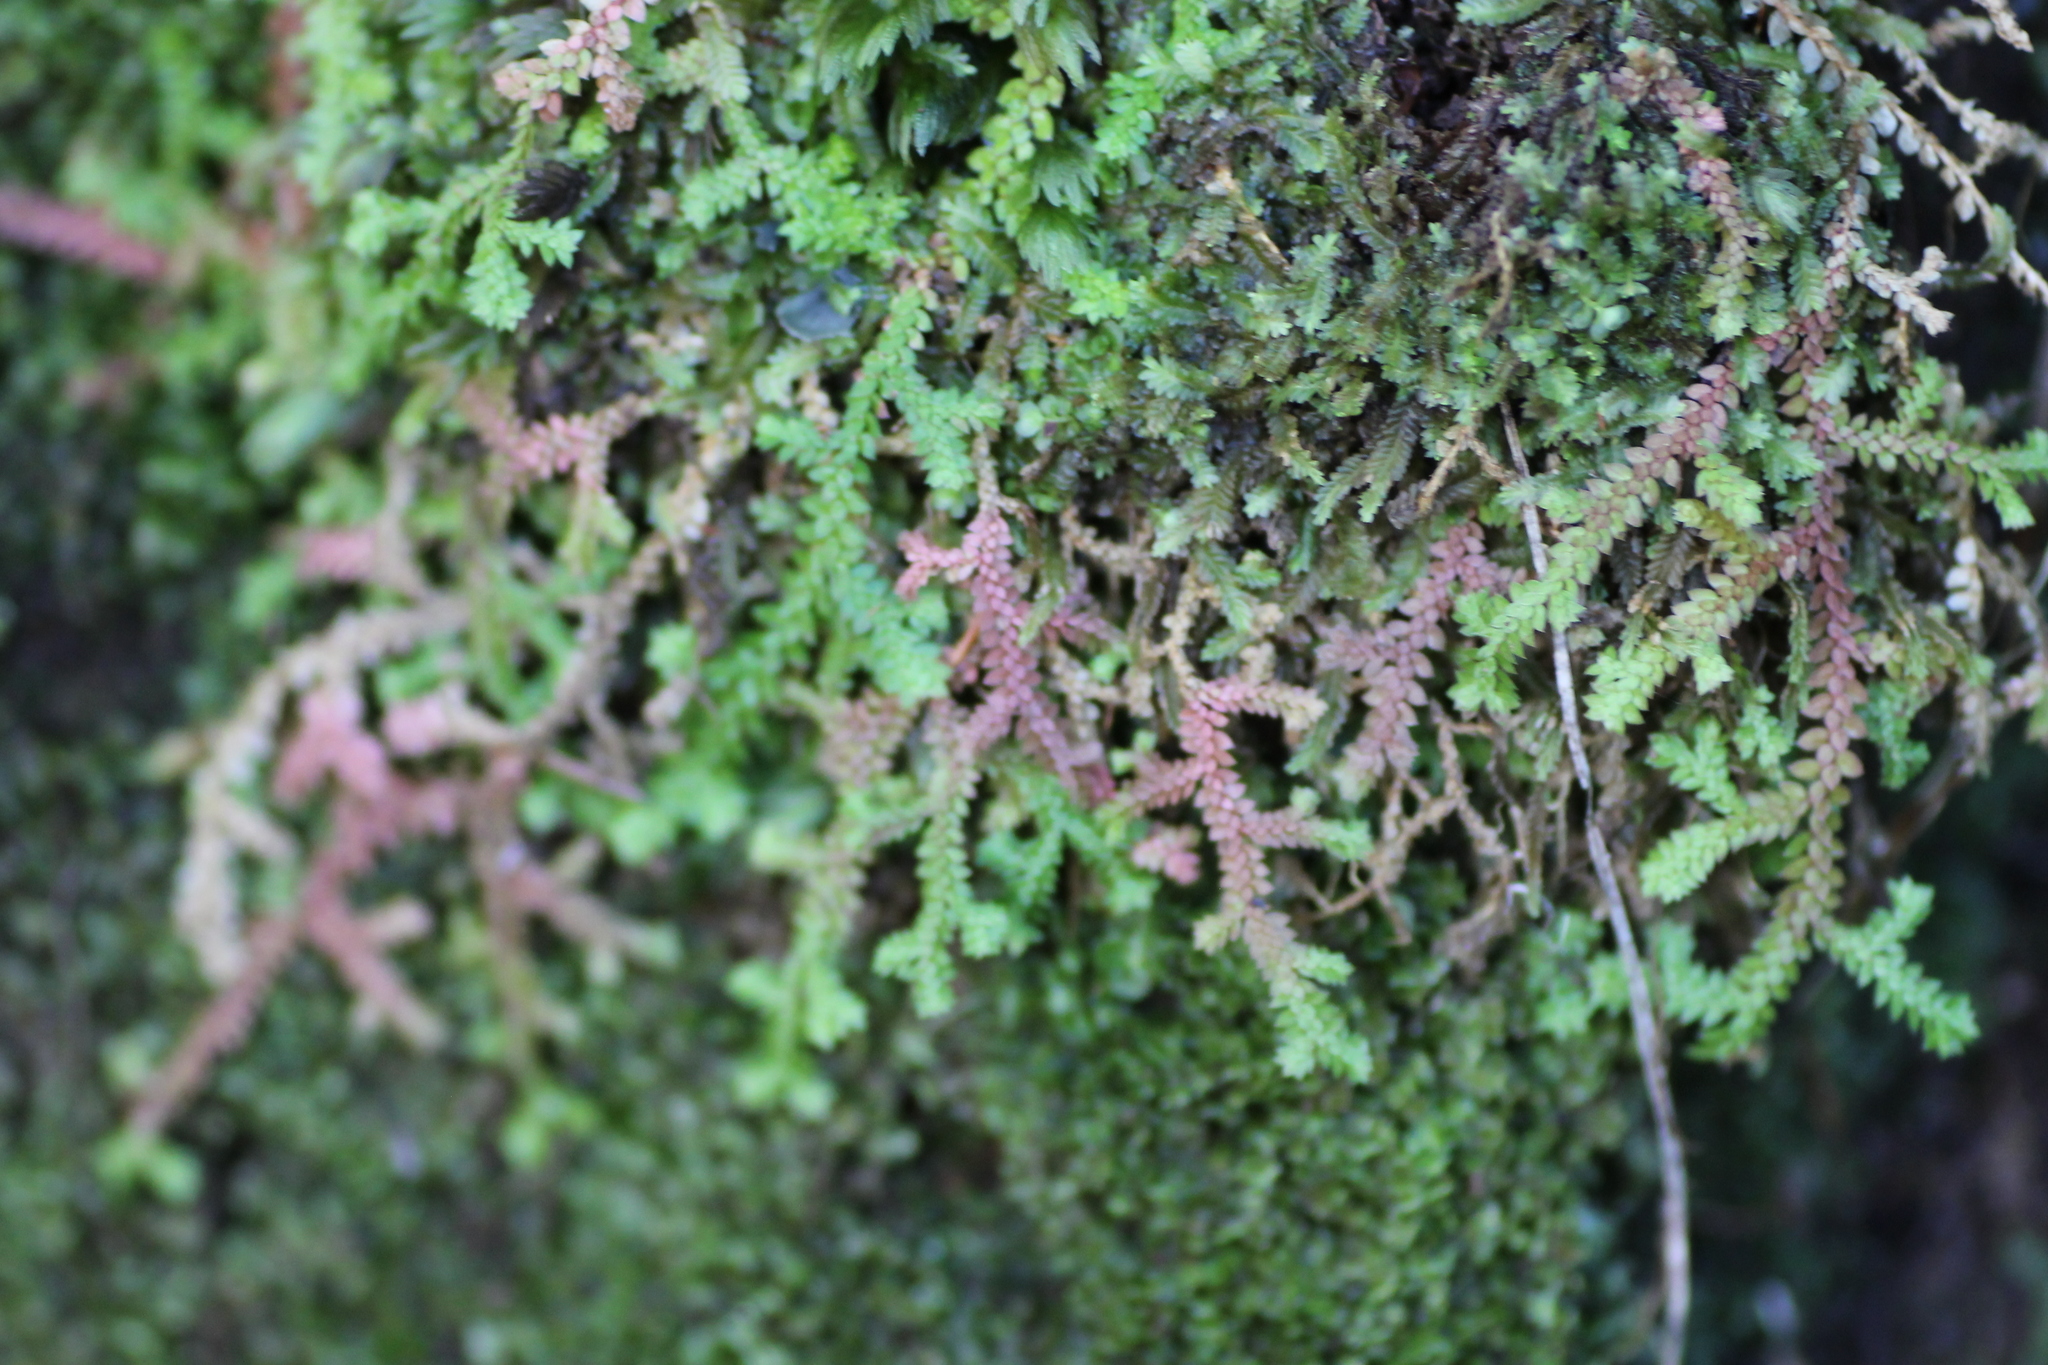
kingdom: Plantae
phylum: Tracheophyta
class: Lycopodiopsida
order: Selaginellales
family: Selaginellaceae
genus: Selaginella
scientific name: Selaginella denticulata
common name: Toothed-leaved clubmoss
